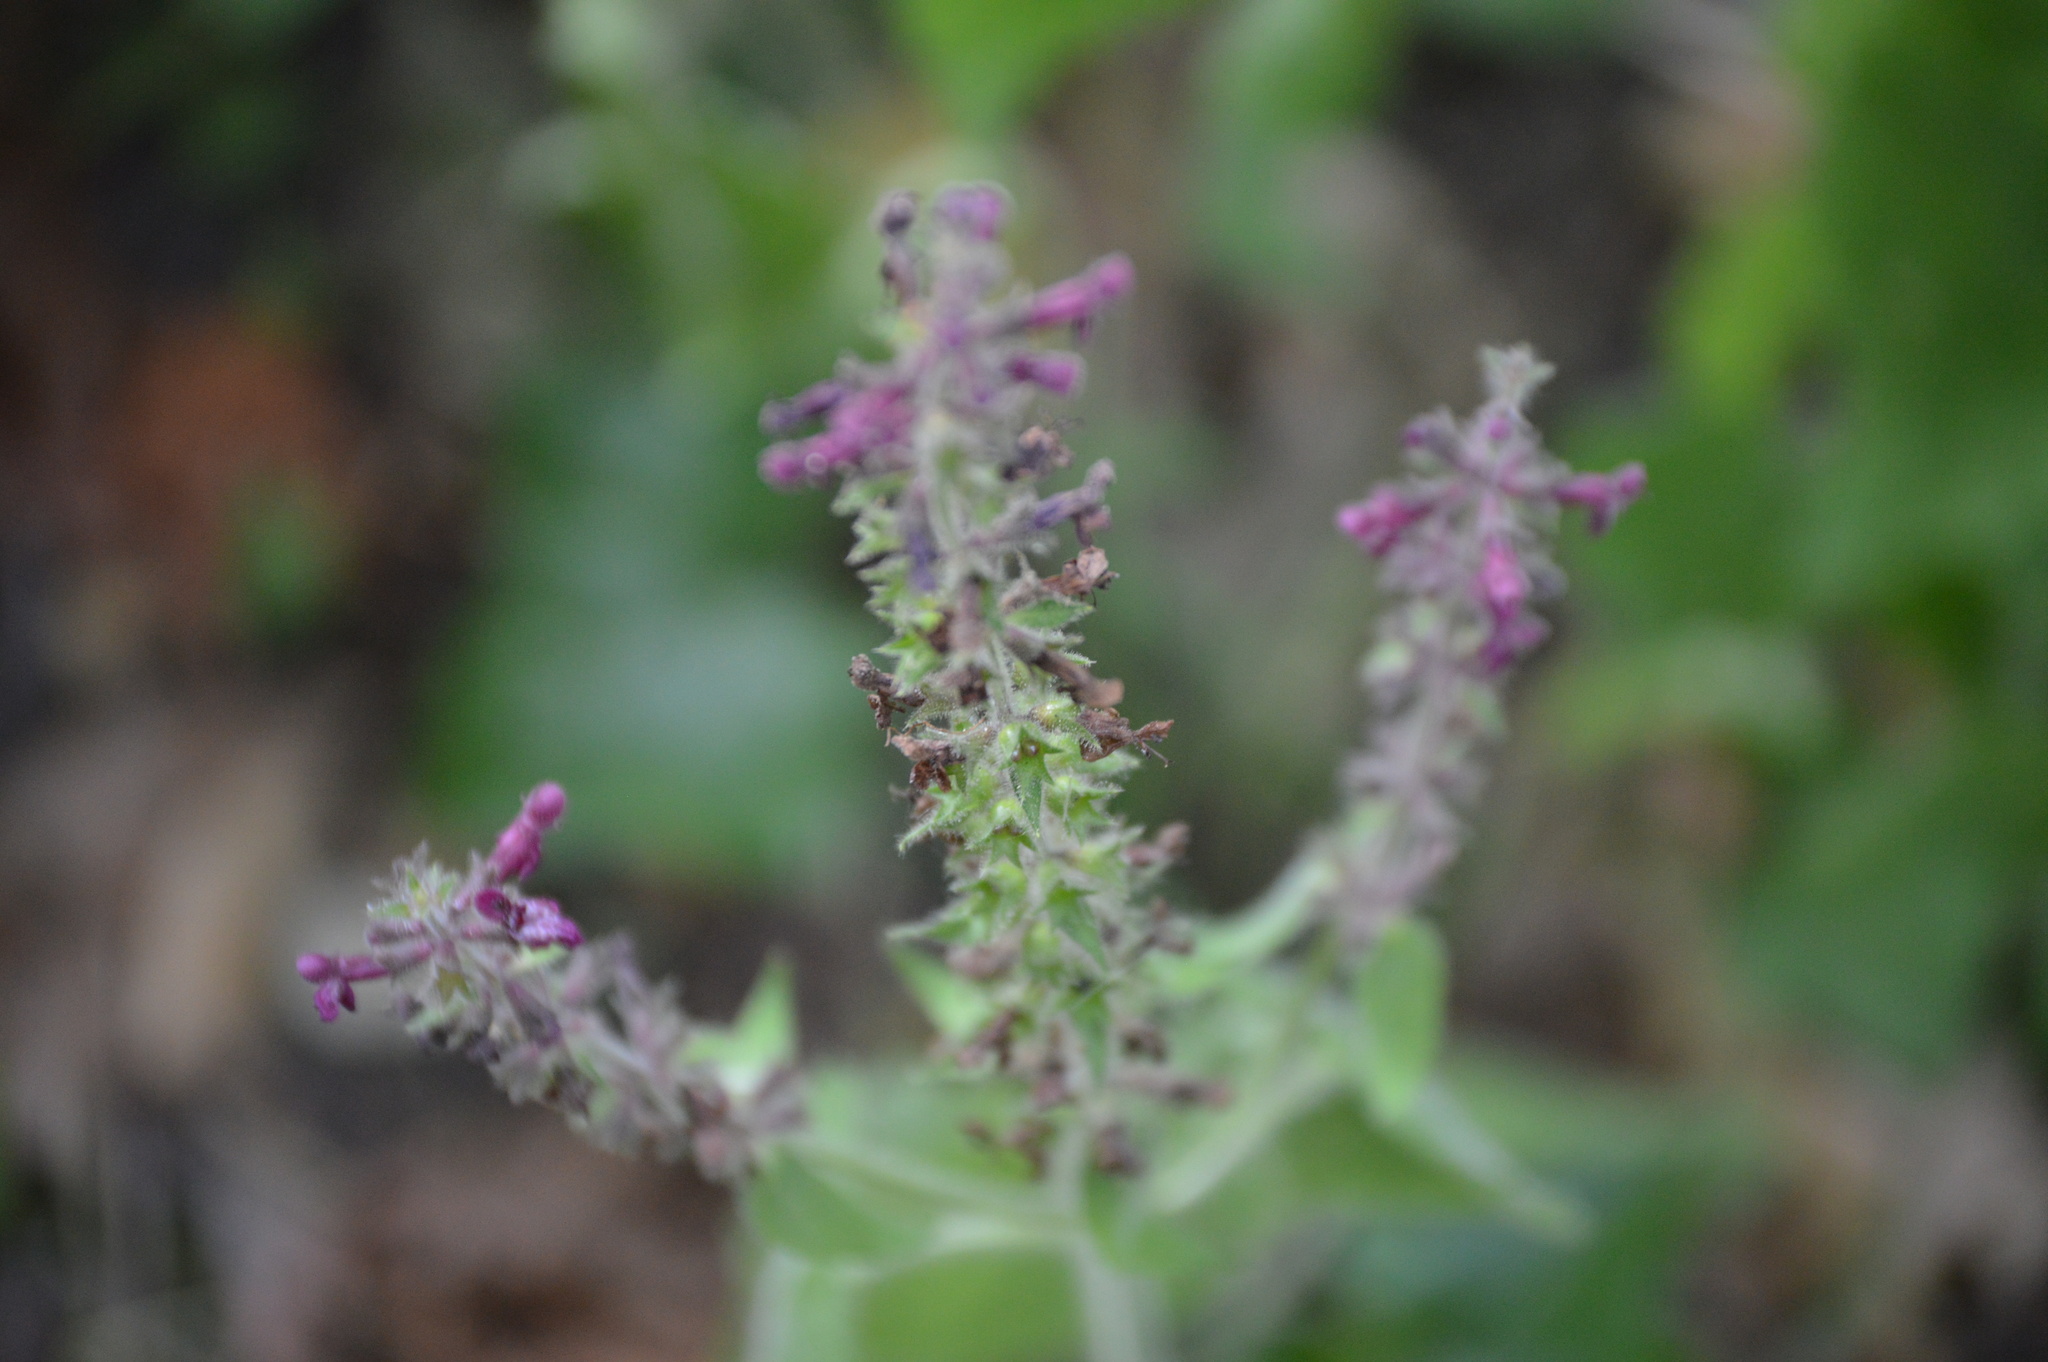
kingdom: Plantae
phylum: Tracheophyta
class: Magnoliopsida
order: Lamiales
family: Lamiaceae
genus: Stachys
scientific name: Stachys sylvatica
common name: Hedge woundwort
